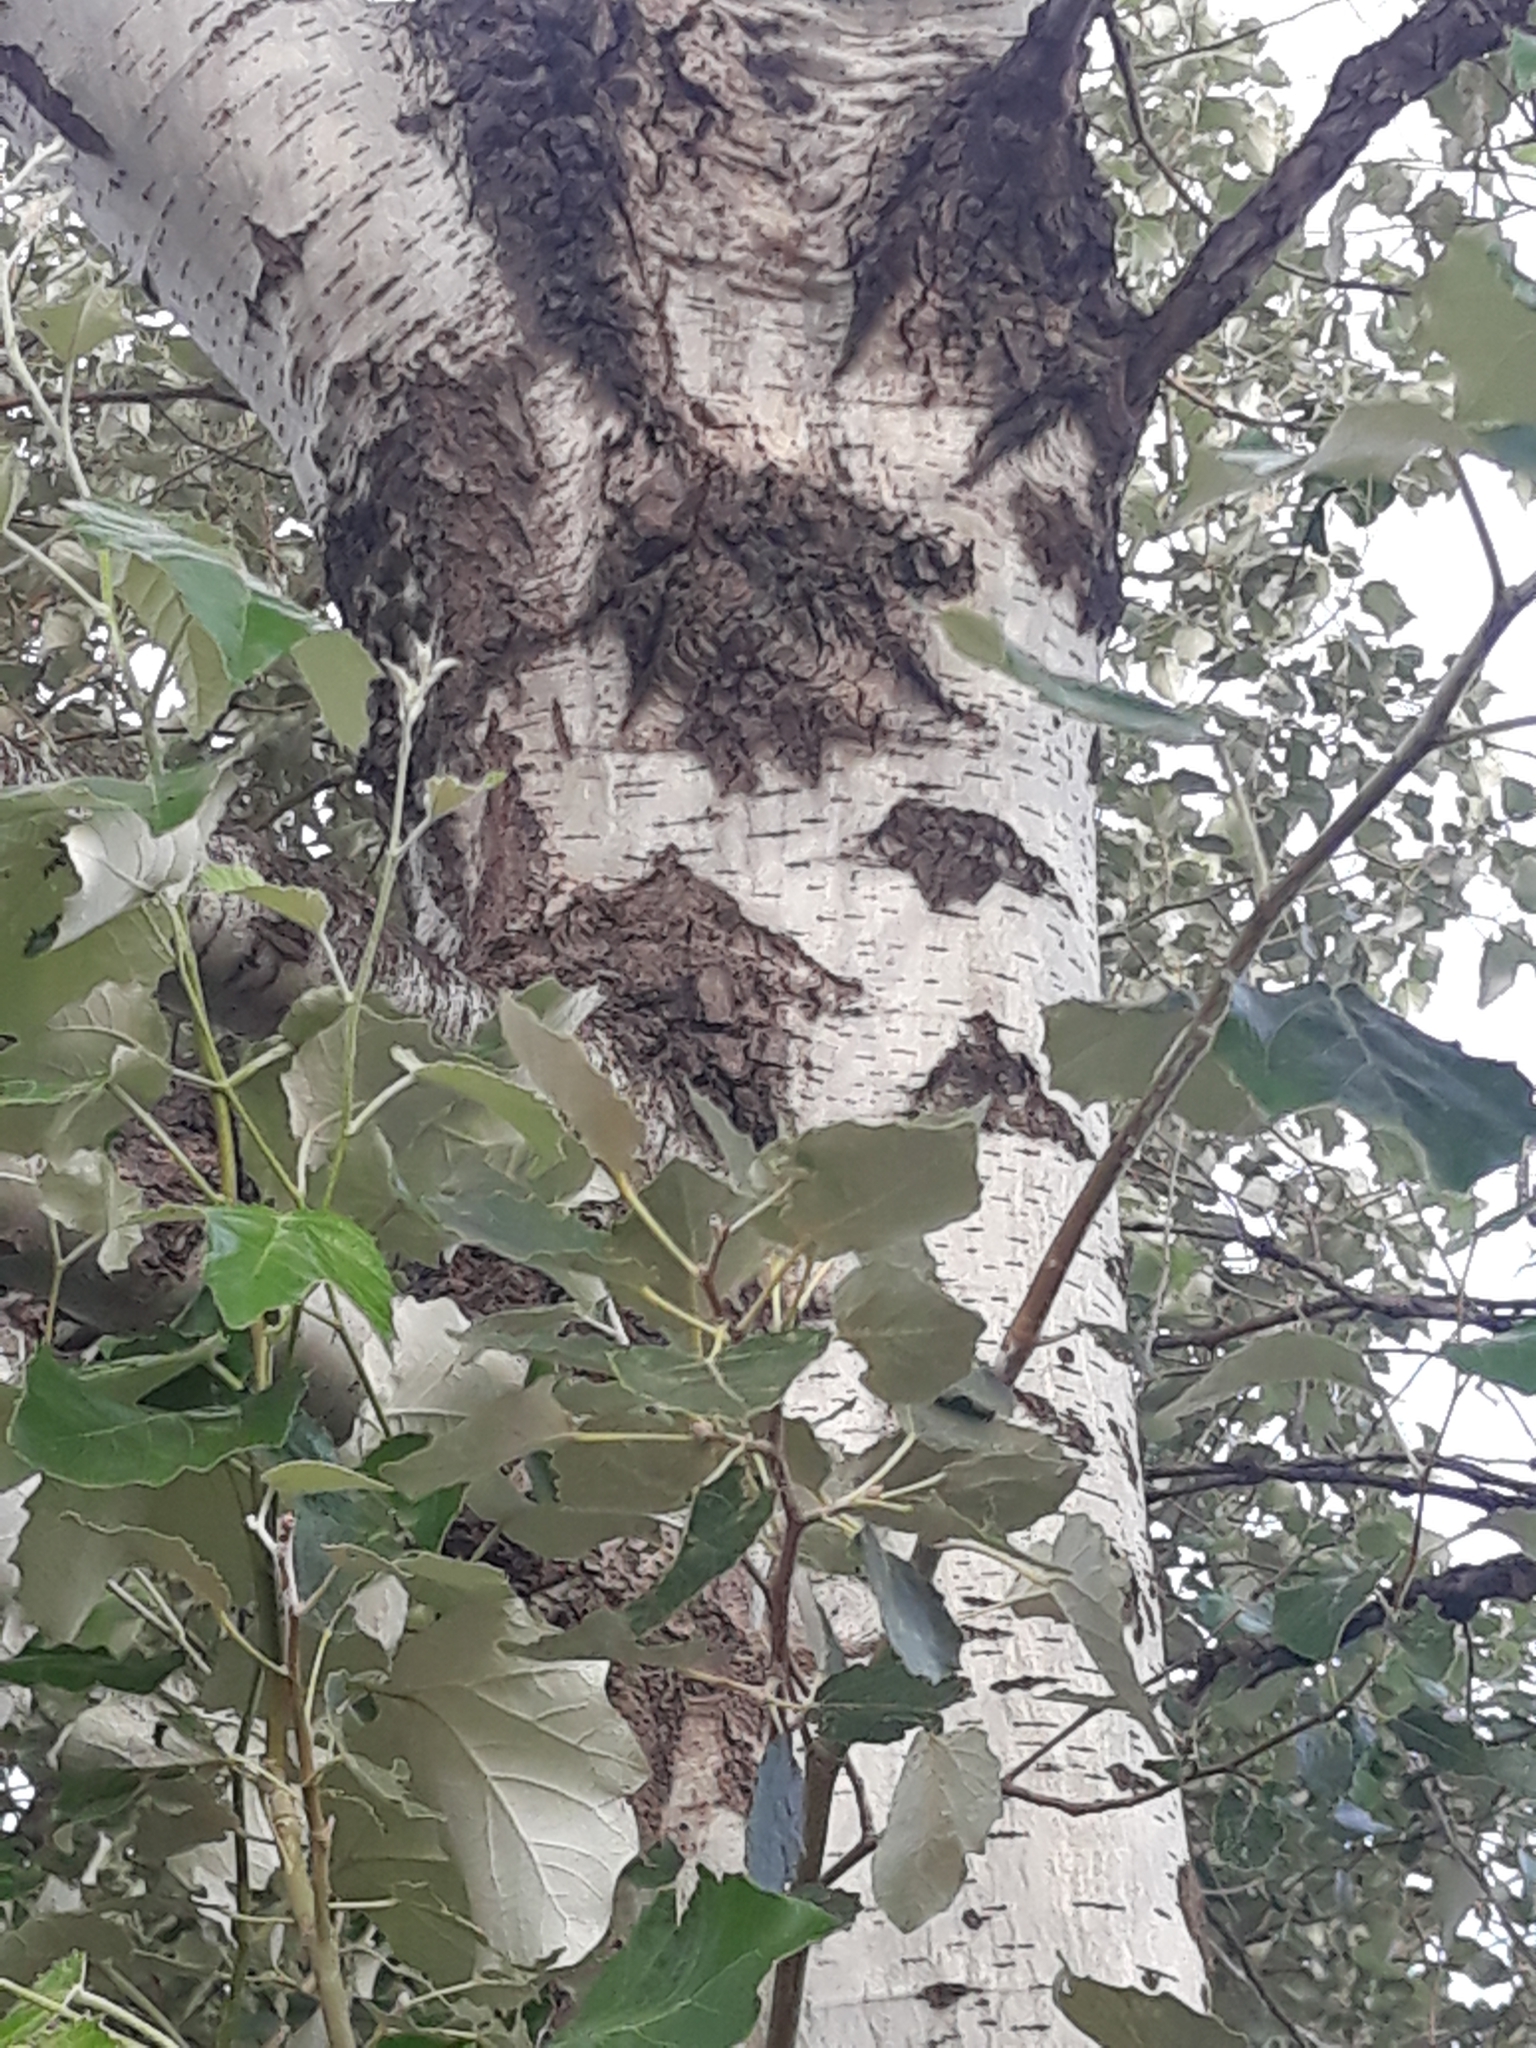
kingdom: Plantae
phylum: Tracheophyta
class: Magnoliopsida
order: Malpighiales
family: Salicaceae
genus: Populus
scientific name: Populus alba
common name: White poplar
